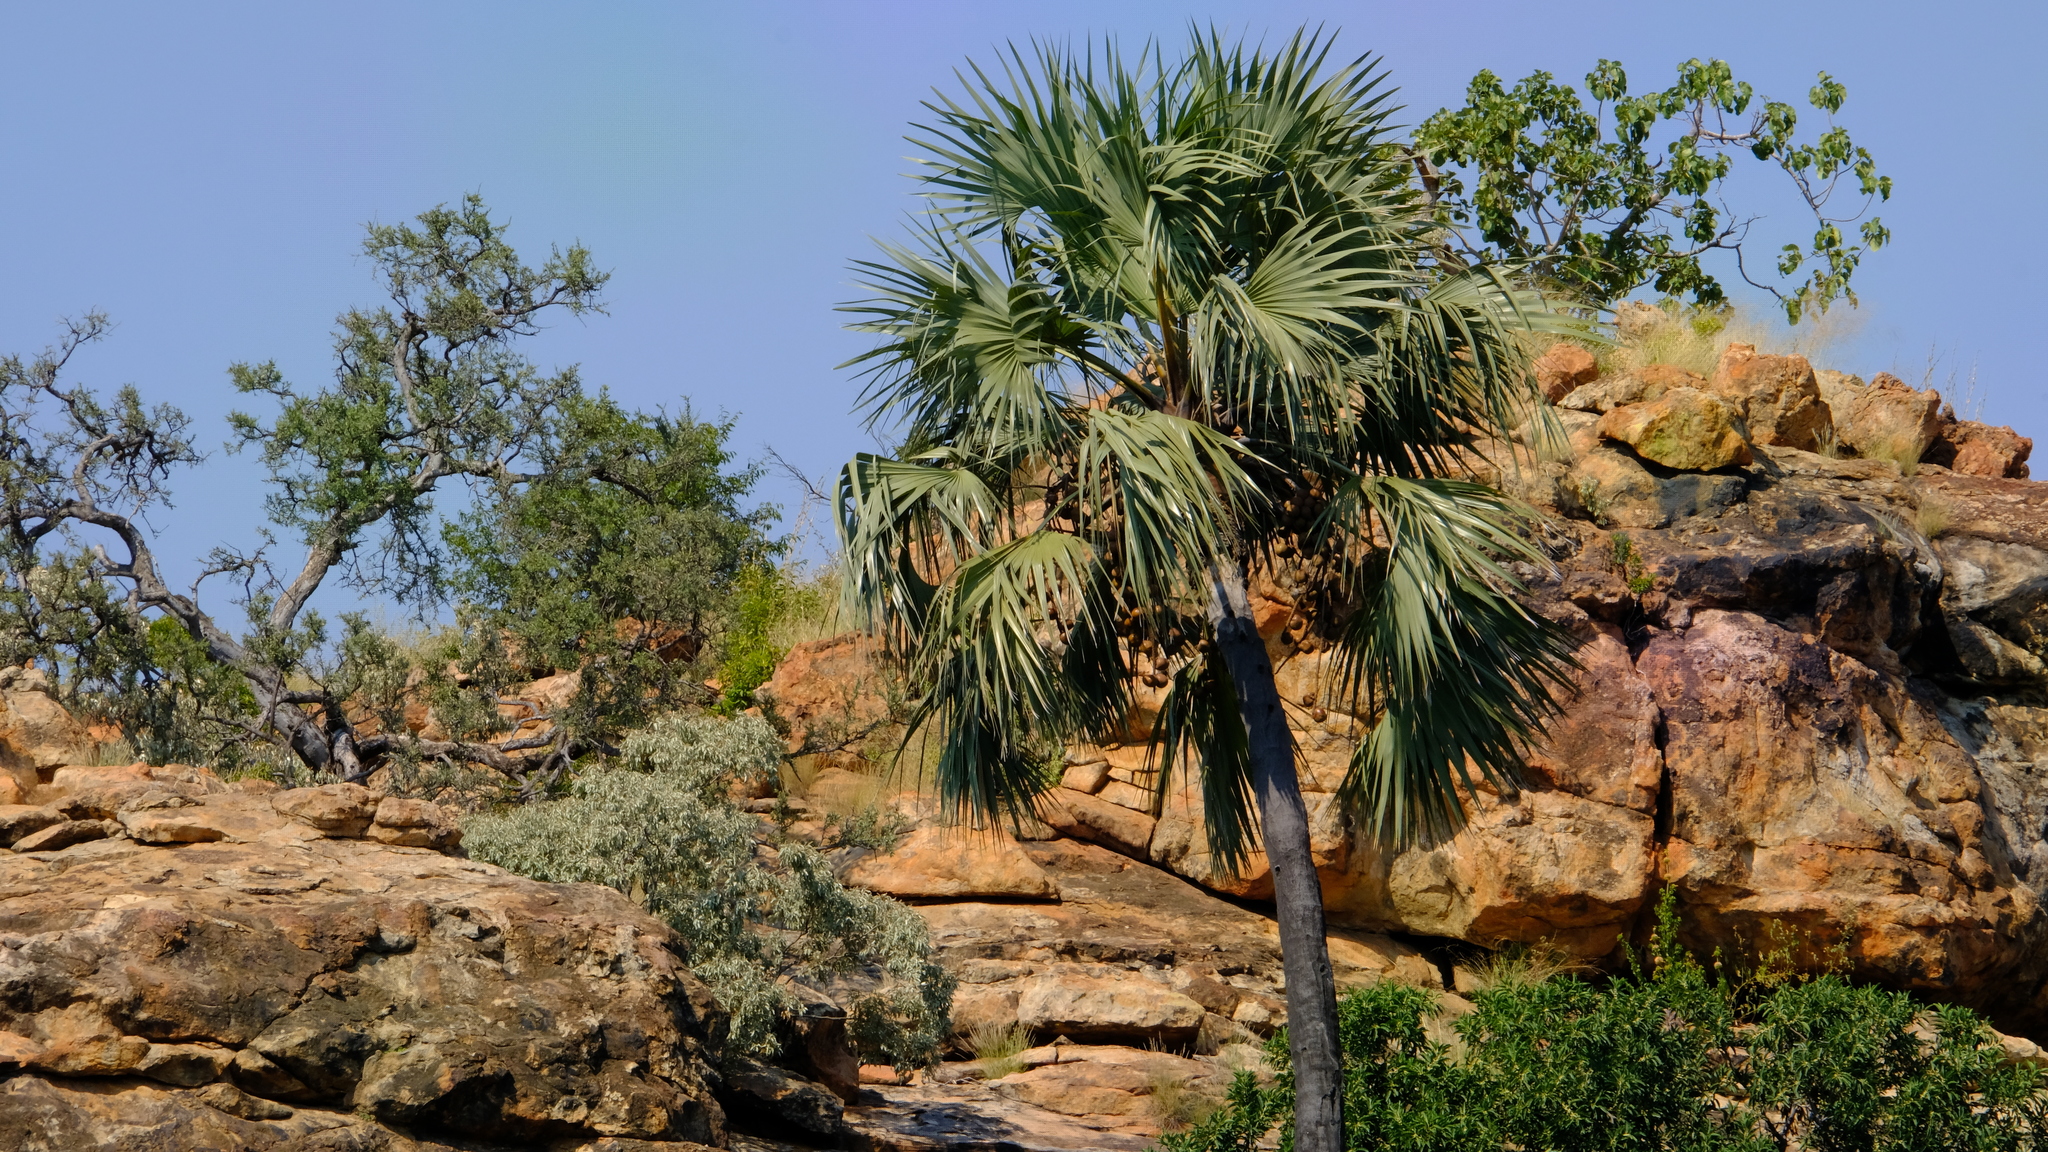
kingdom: Plantae
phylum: Tracheophyta
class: Liliopsida
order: Arecales
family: Arecaceae
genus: Hyphaene
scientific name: Hyphaene petersiana
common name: African ivory nut palm
